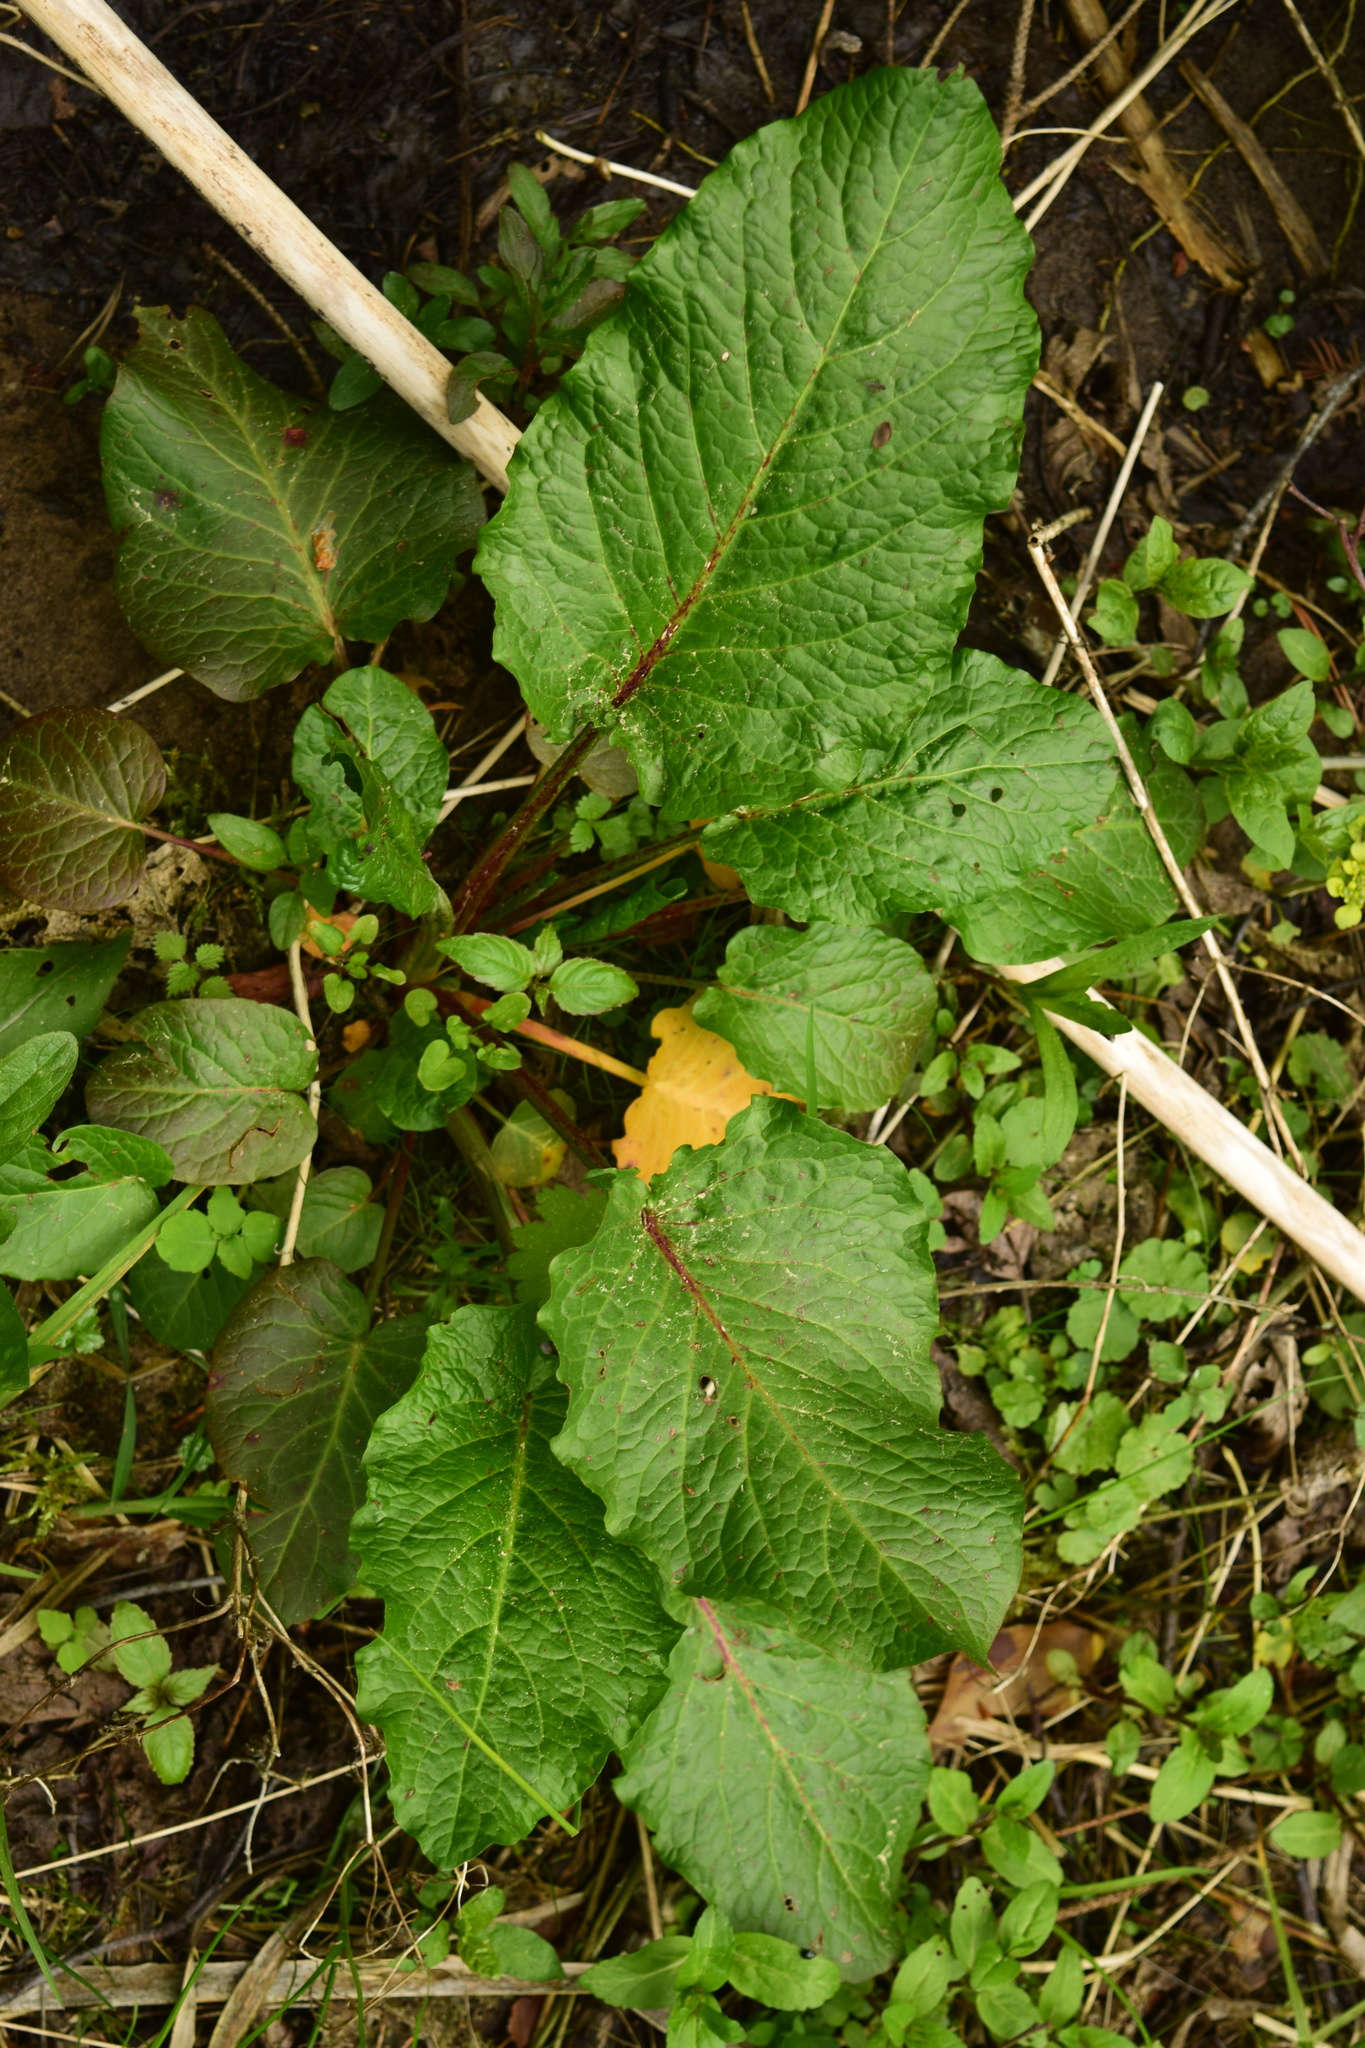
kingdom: Plantae
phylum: Tracheophyta
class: Magnoliopsida
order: Caryophyllales
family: Polygonaceae
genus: Rumex
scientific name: Rumex obtusifolius
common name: Bitter dock
